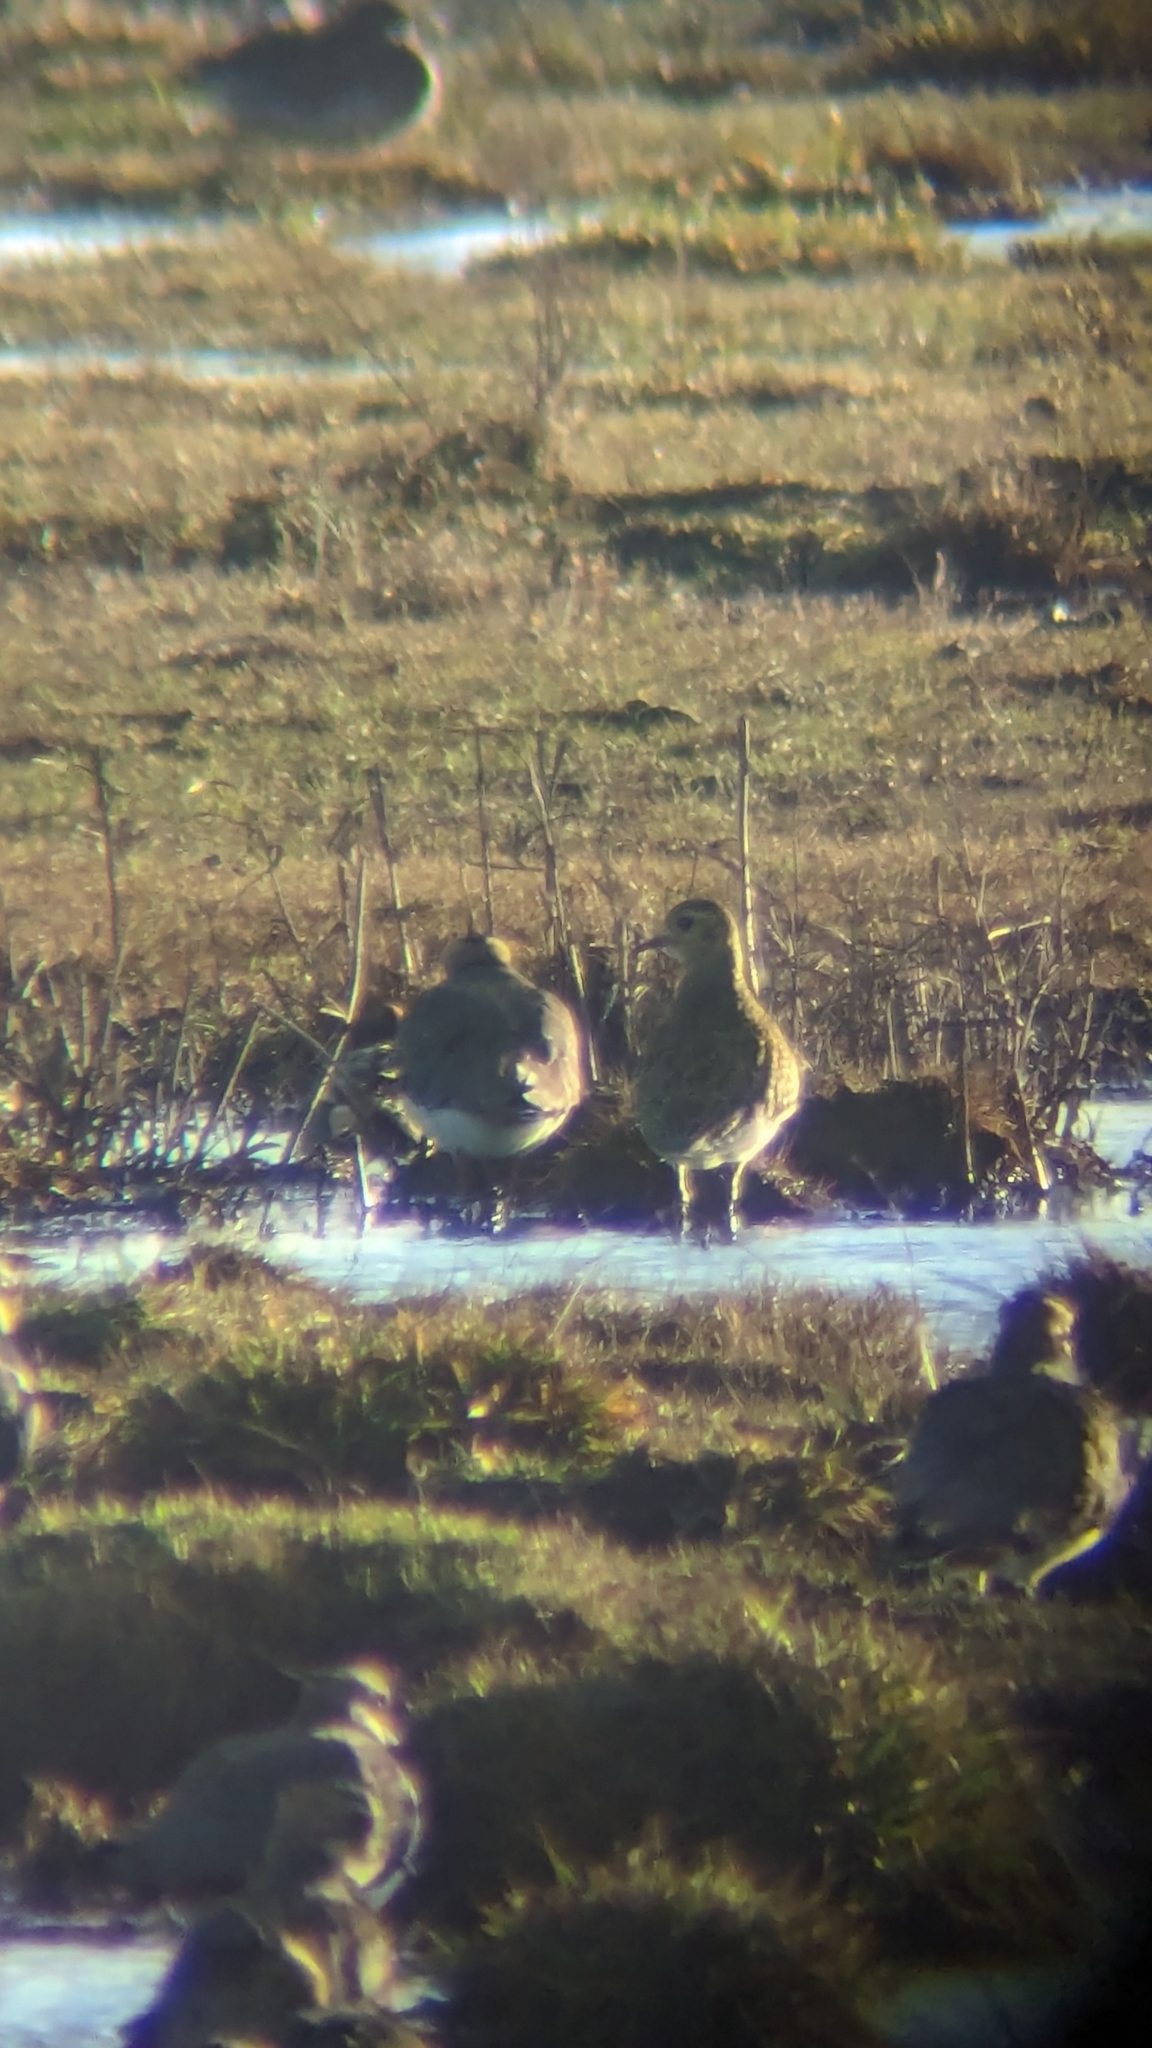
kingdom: Animalia
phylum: Chordata
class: Aves
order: Charadriiformes
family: Charadriidae
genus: Pluvialis
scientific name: Pluvialis apricaria
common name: European golden plover
